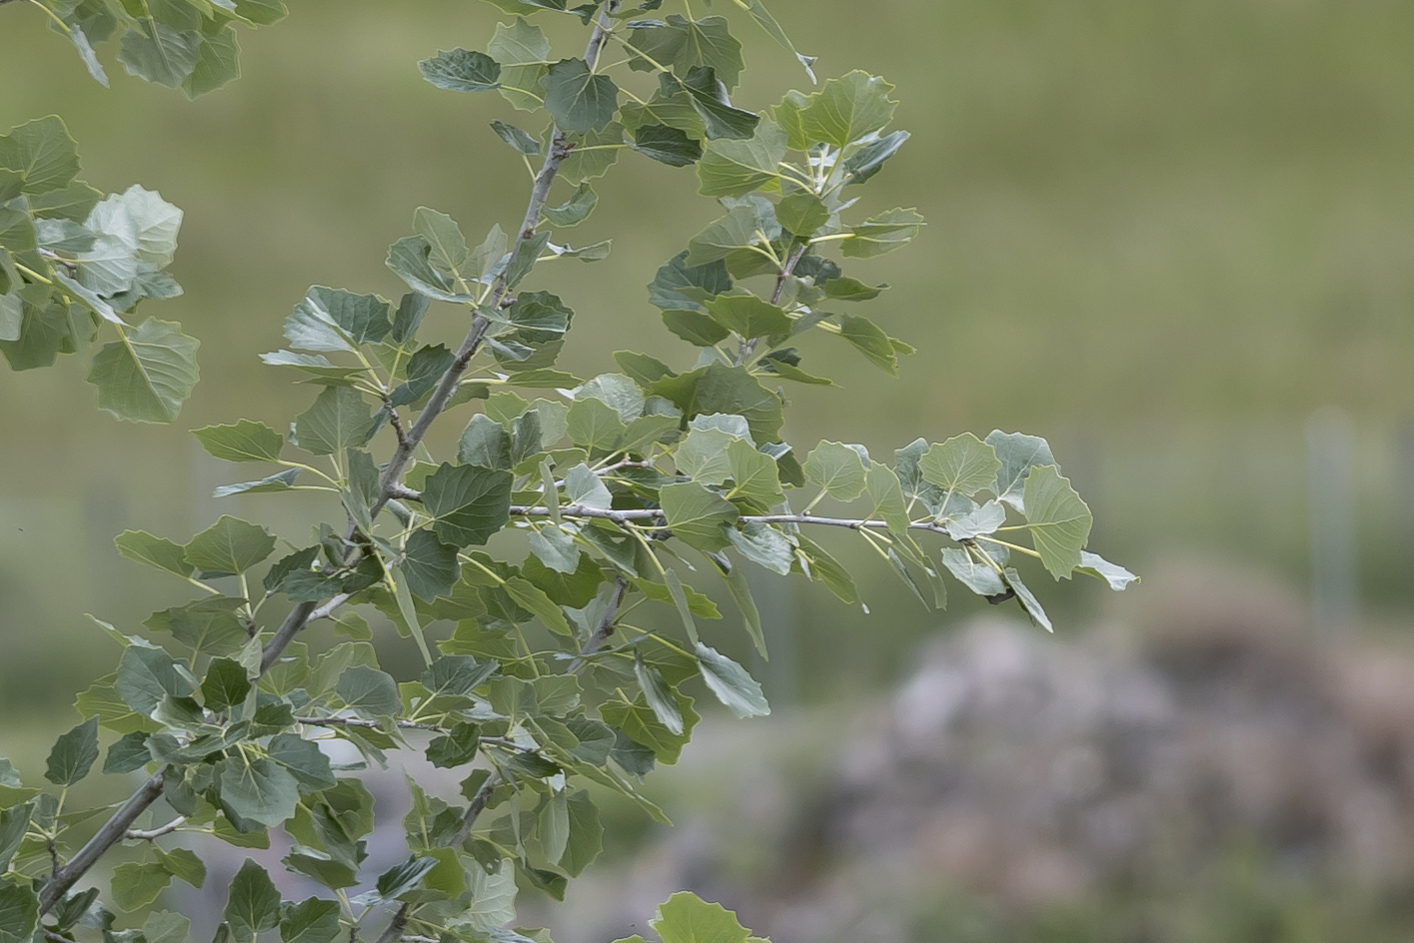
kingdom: Plantae
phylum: Tracheophyta
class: Magnoliopsida
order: Malpighiales
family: Salicaceae
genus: Populus
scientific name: Populus tremula
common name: European aspen
